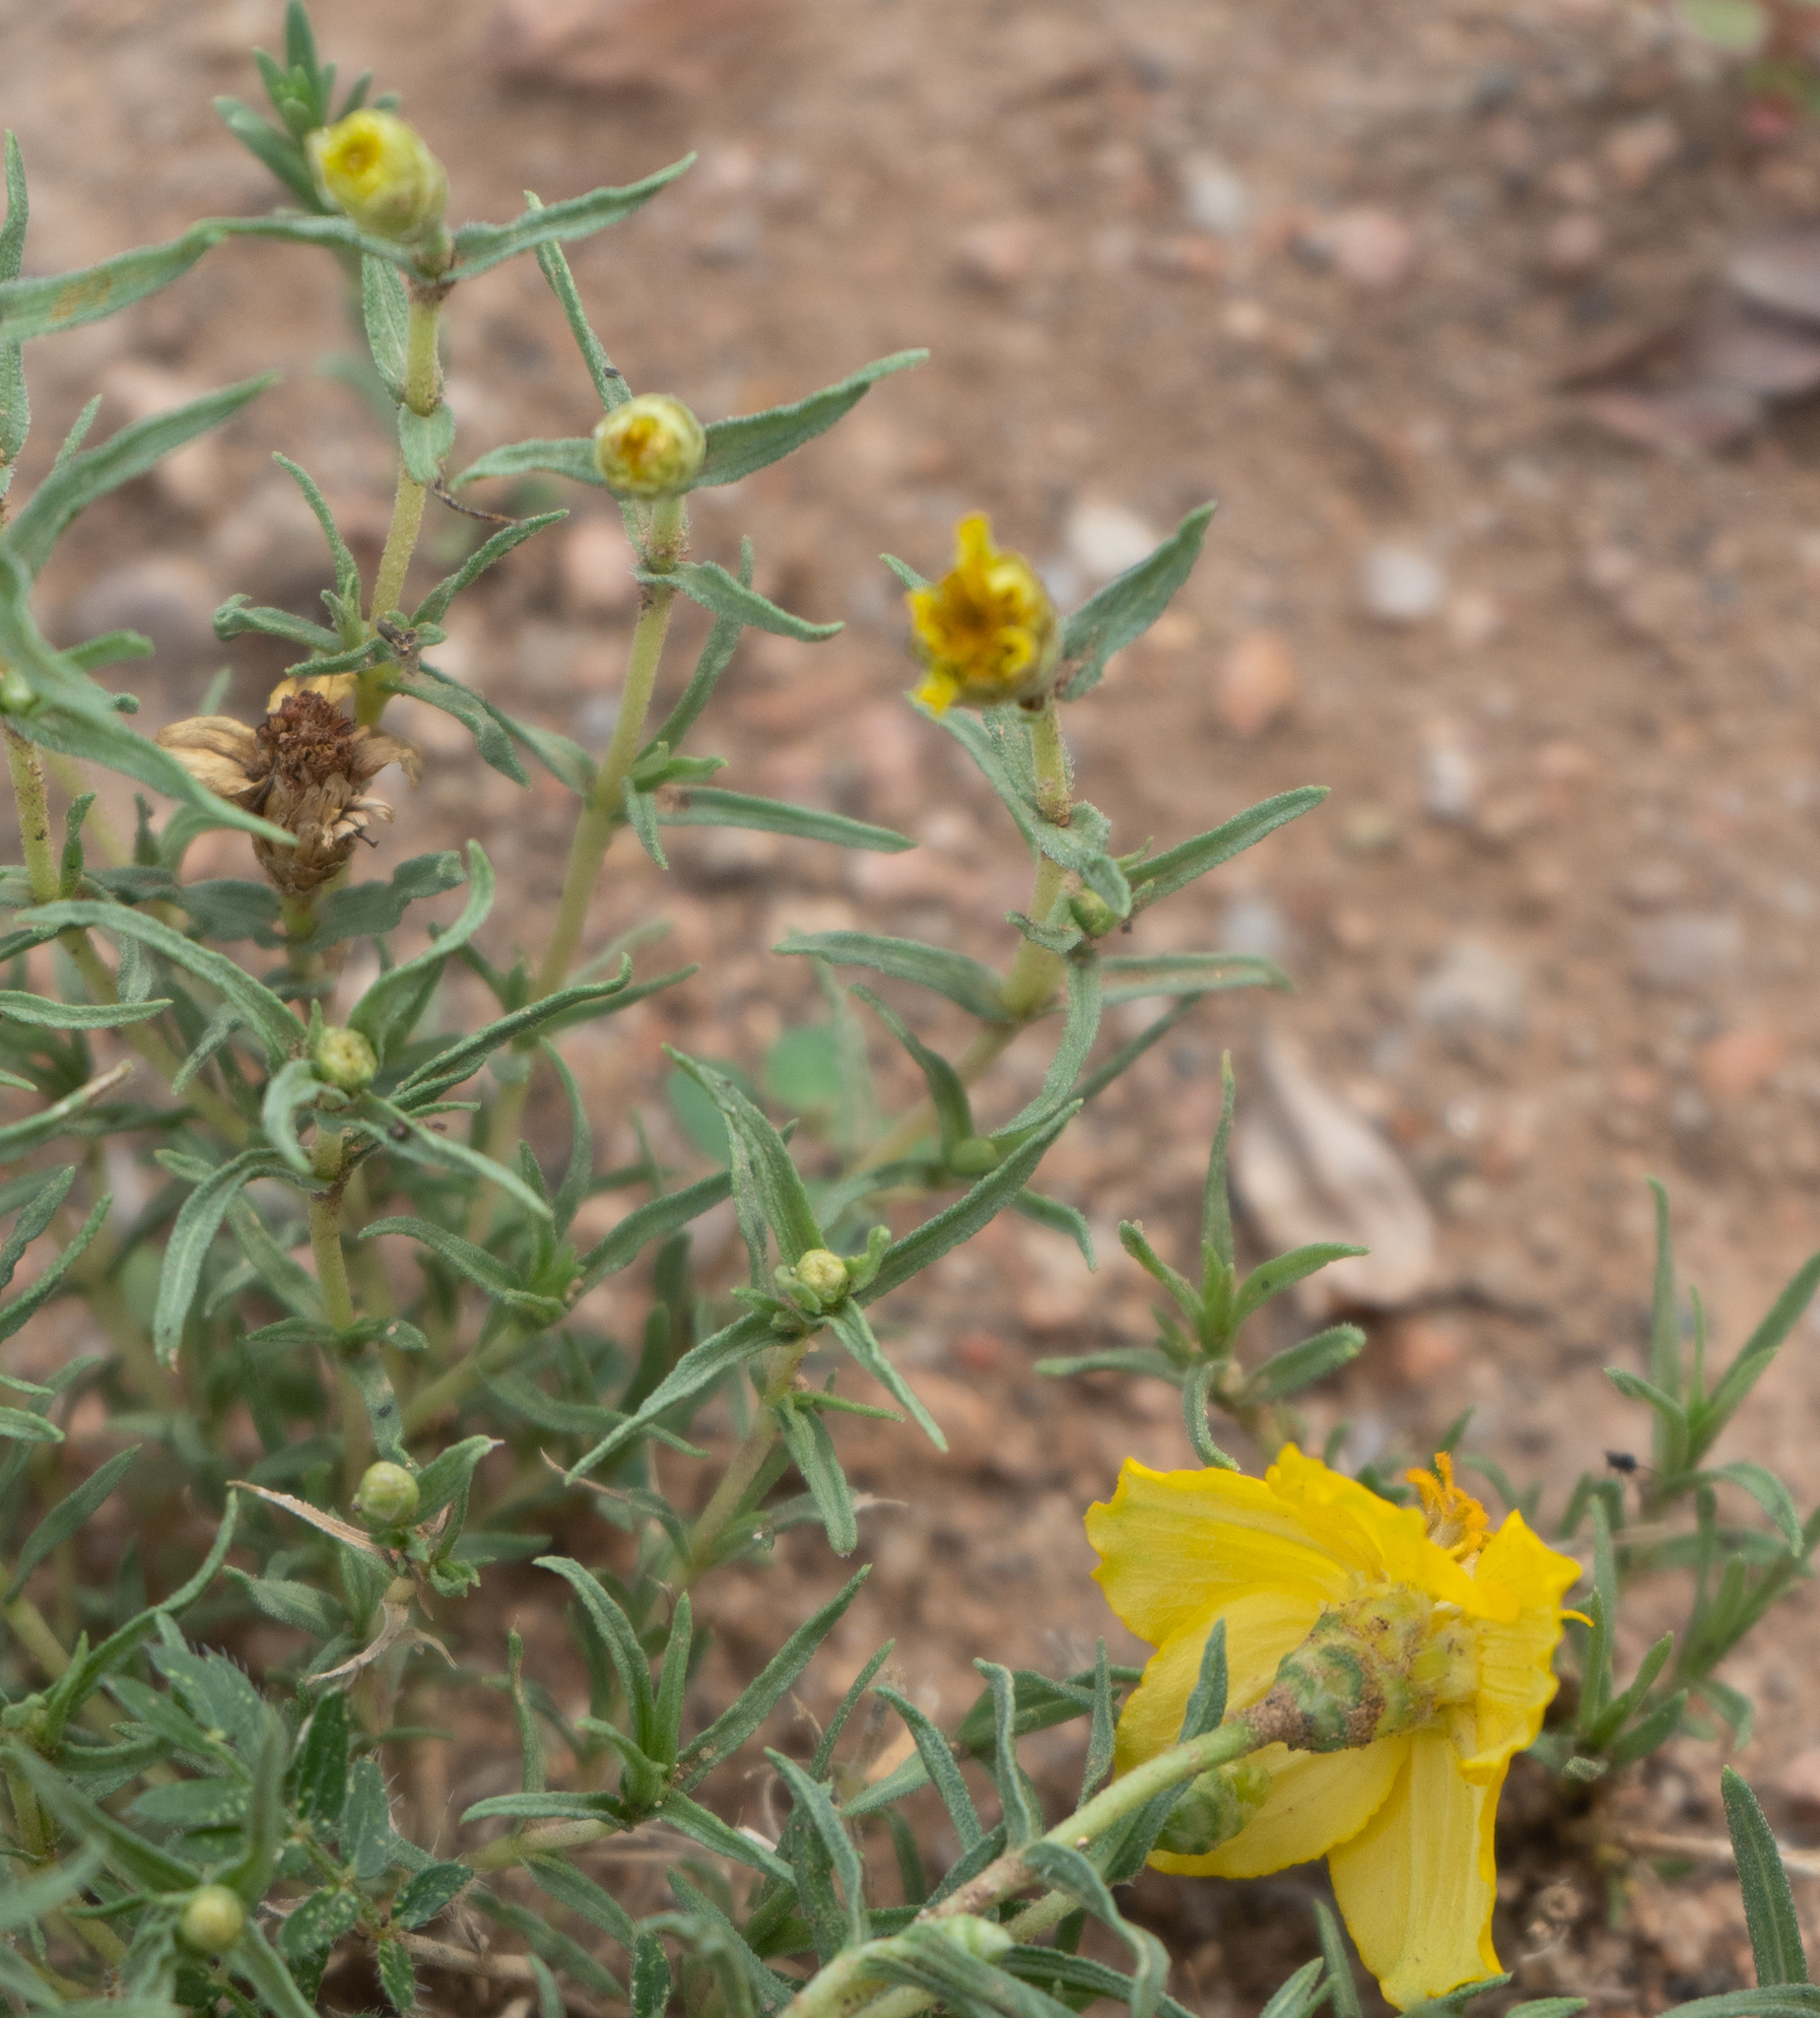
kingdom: Plantae
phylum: Tracheophyta
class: Magnoliopsida
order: Asterales
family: Asteraceae
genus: Zinnia
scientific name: Zinnia grandiflora
